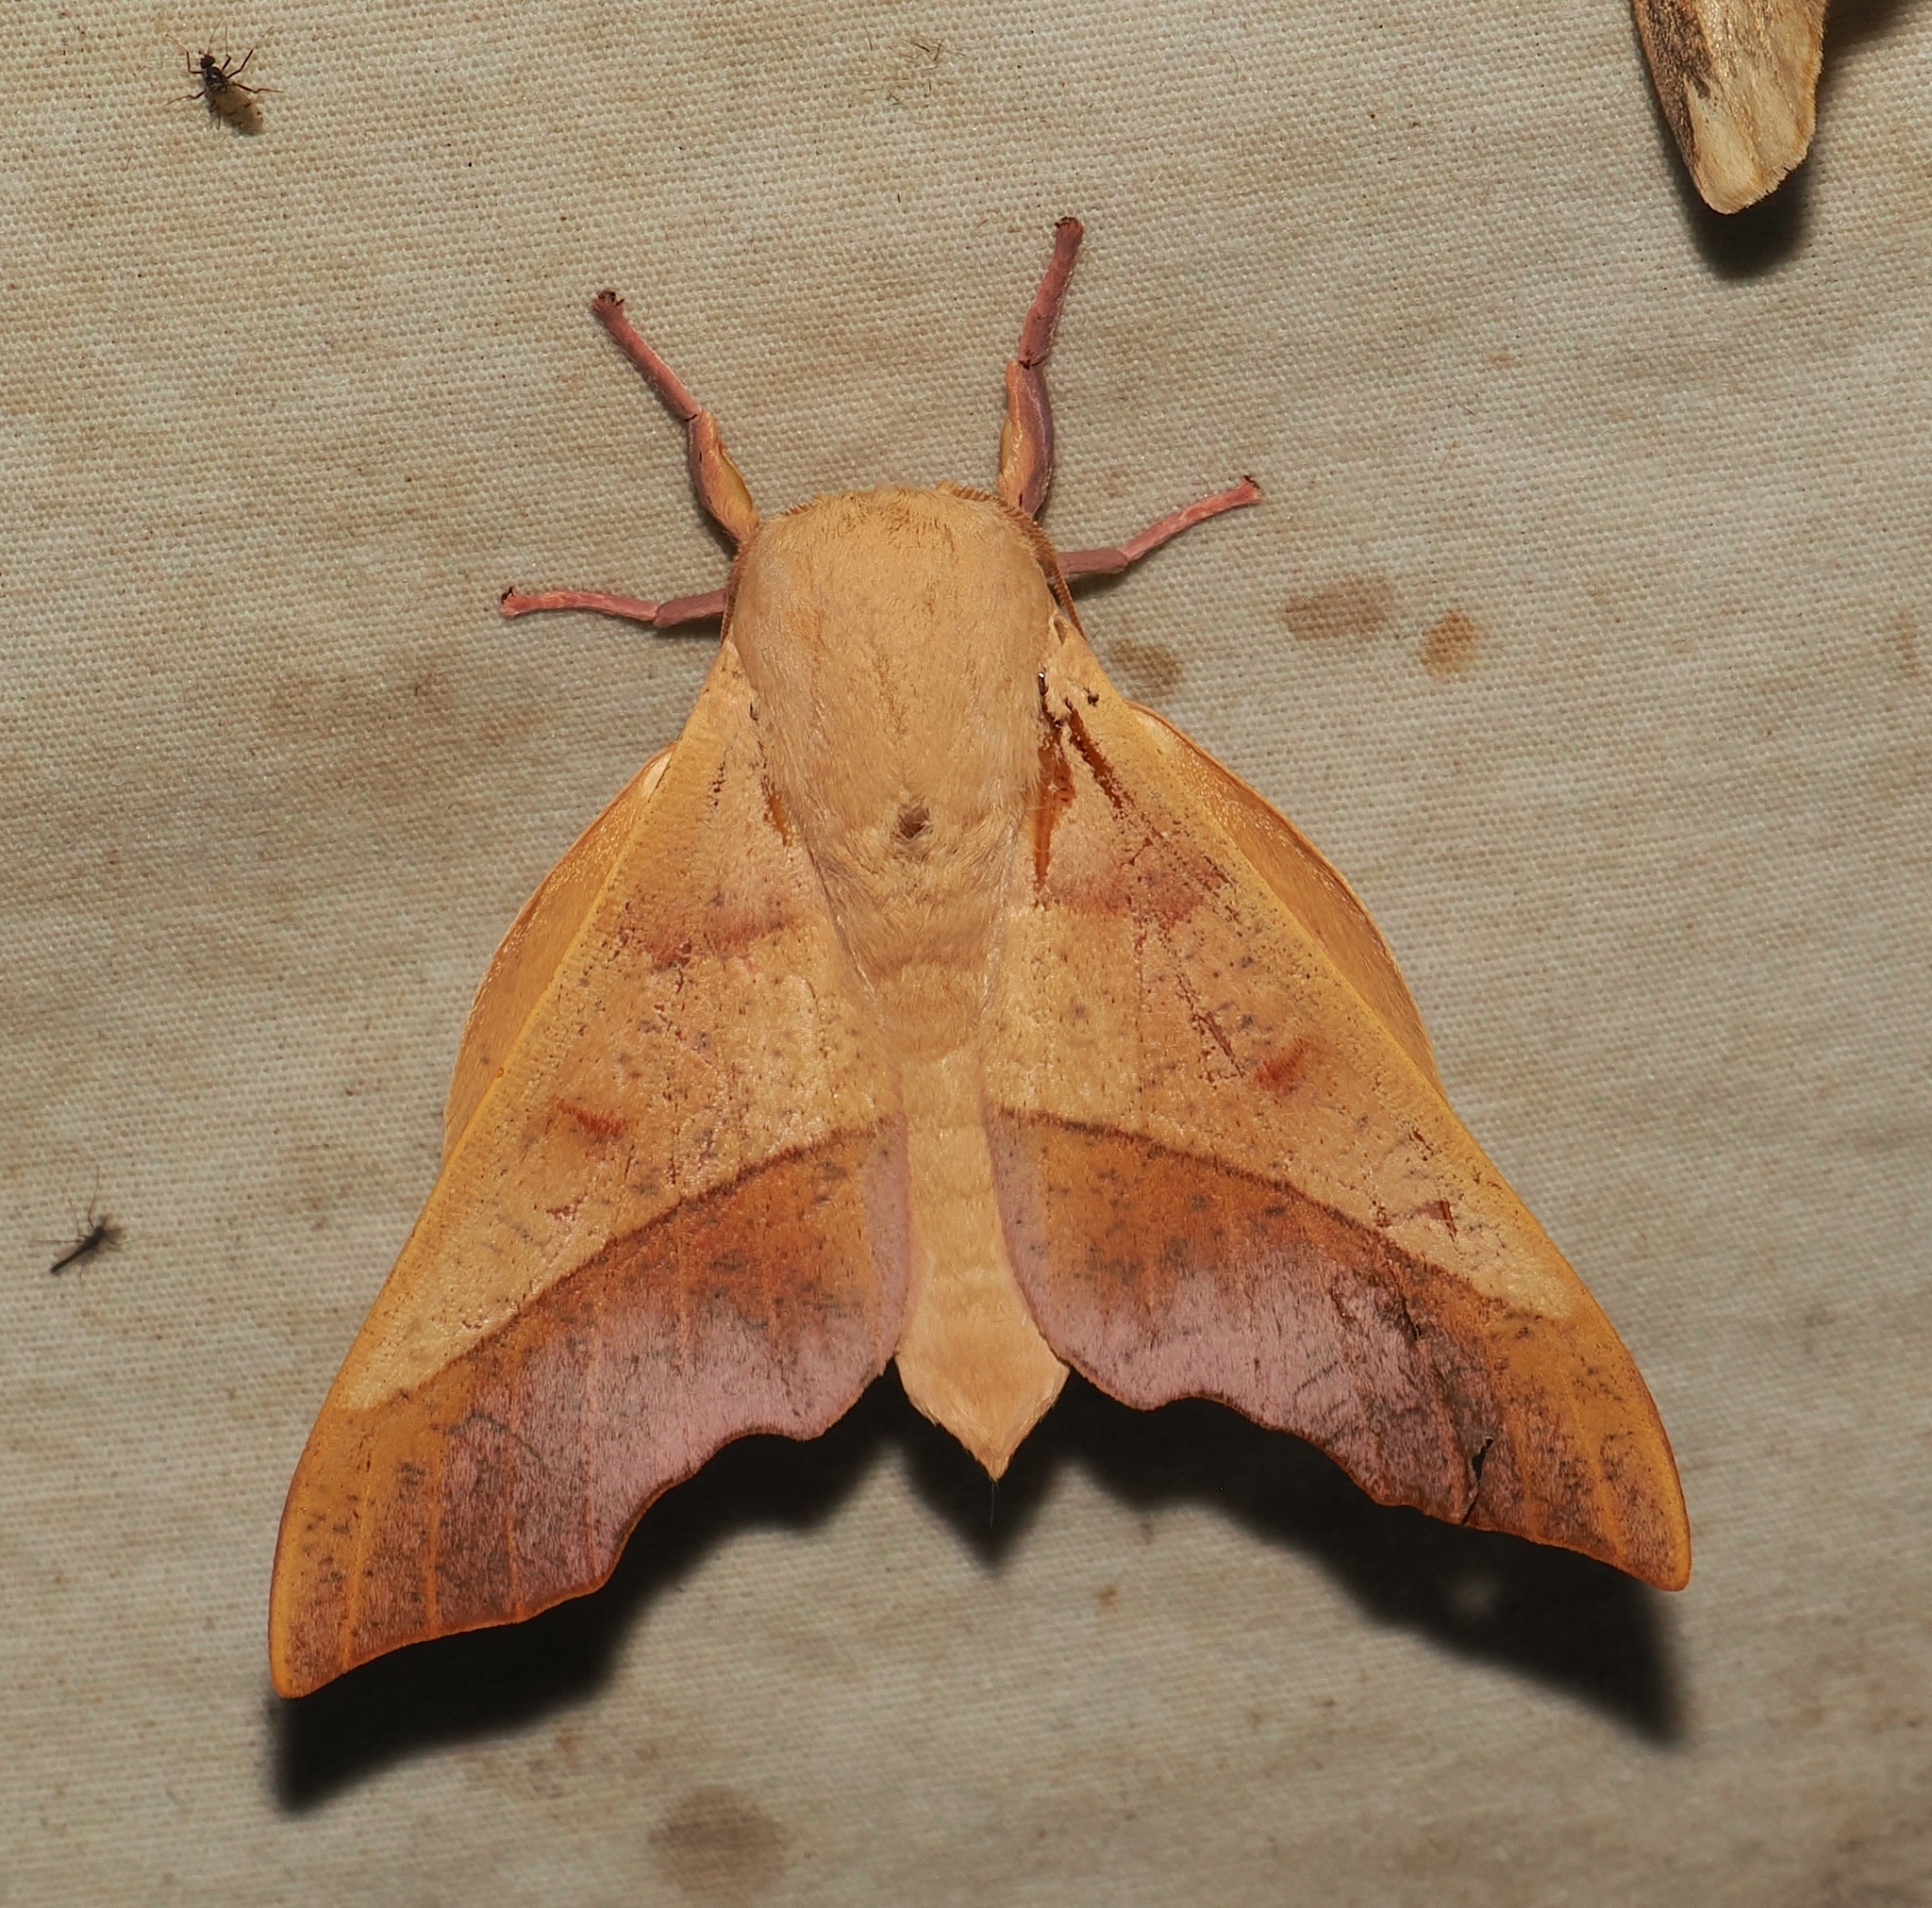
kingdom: Animalia
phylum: Arthropoda
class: Insecta
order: Lepidoptera
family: Saturniidae
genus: Syssphinx
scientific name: Syssphinx molina
